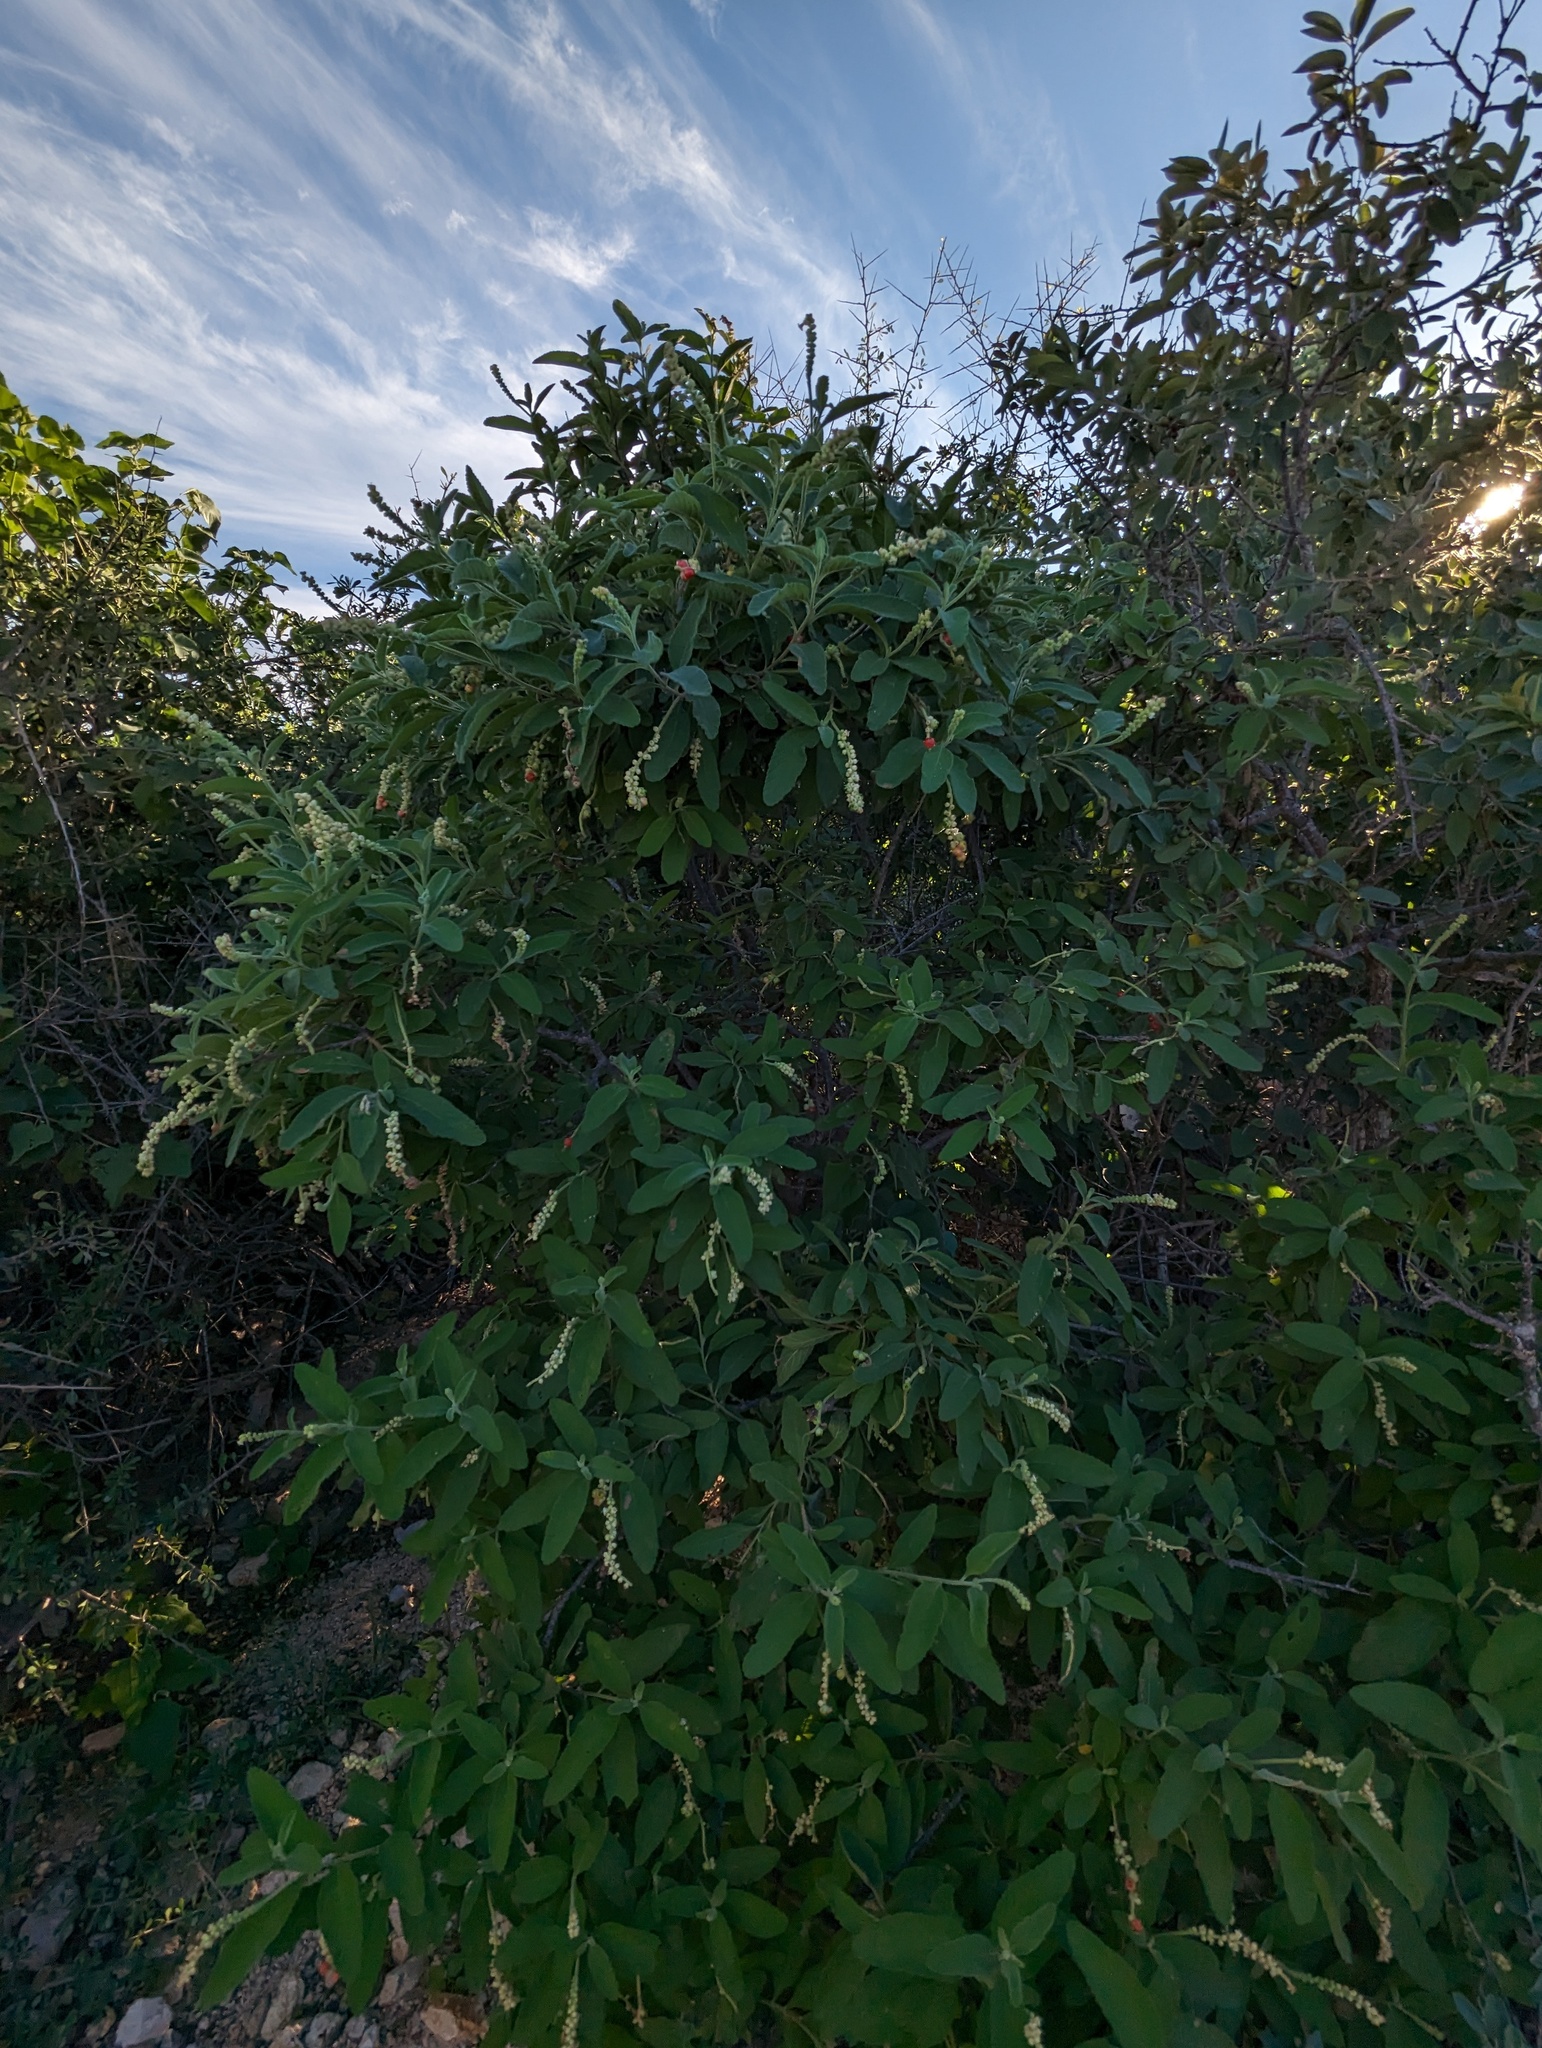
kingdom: Plantae
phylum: Tracheophyta
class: Magnoliopsida
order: Boraginales
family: Cordiaceae
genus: Varronia
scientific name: Varronia curassavica
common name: Black sage
